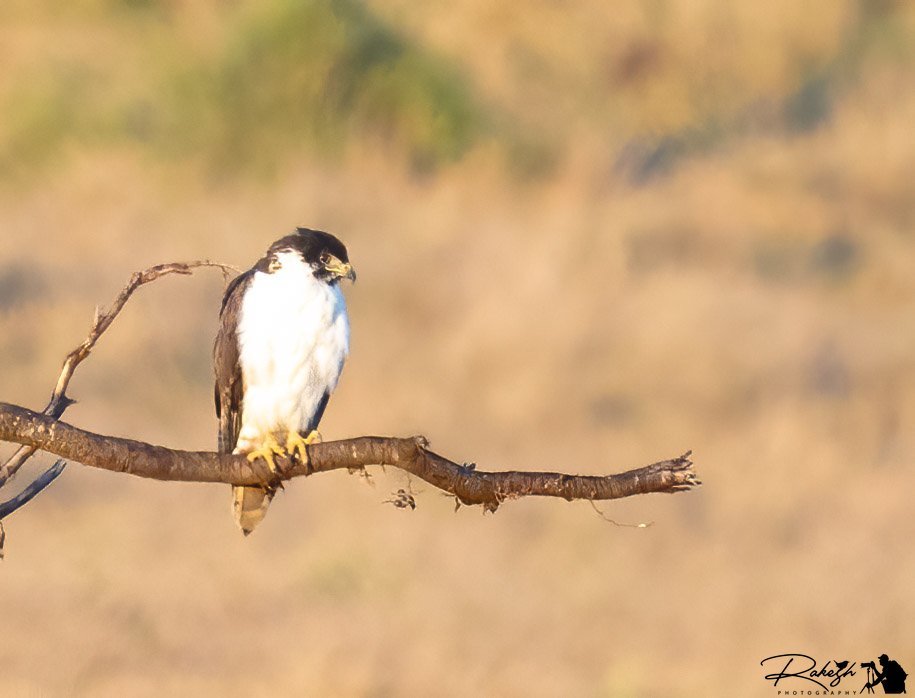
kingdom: Animalia
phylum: Chordata
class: Aves
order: Accipitriformes
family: Accipitridae
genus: Buteo
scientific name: Buteo augur
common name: Augur buzzard
